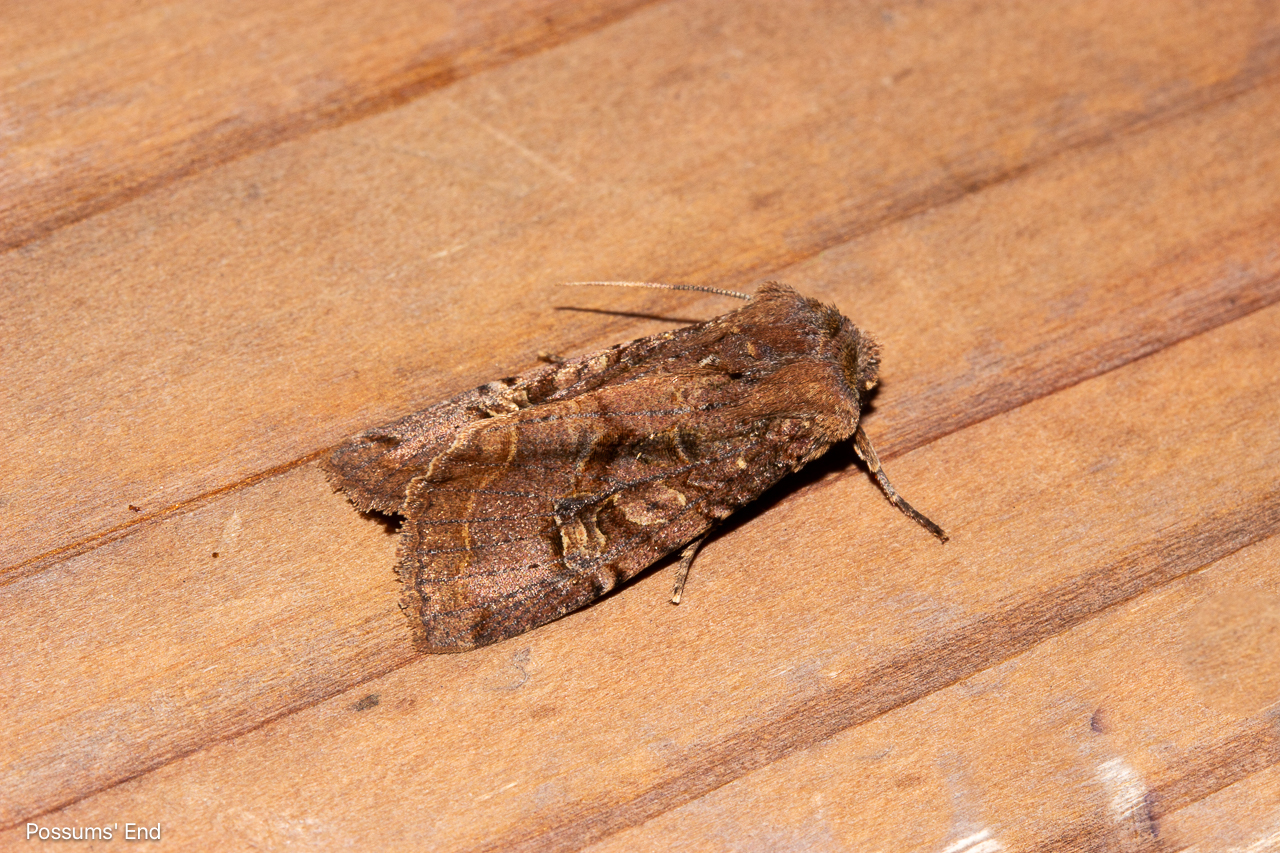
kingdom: Animalia
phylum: Arthropoda
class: Insecta
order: Lepidoptera
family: Noctuidae
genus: Meterana
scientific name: Meterana tartaraea
